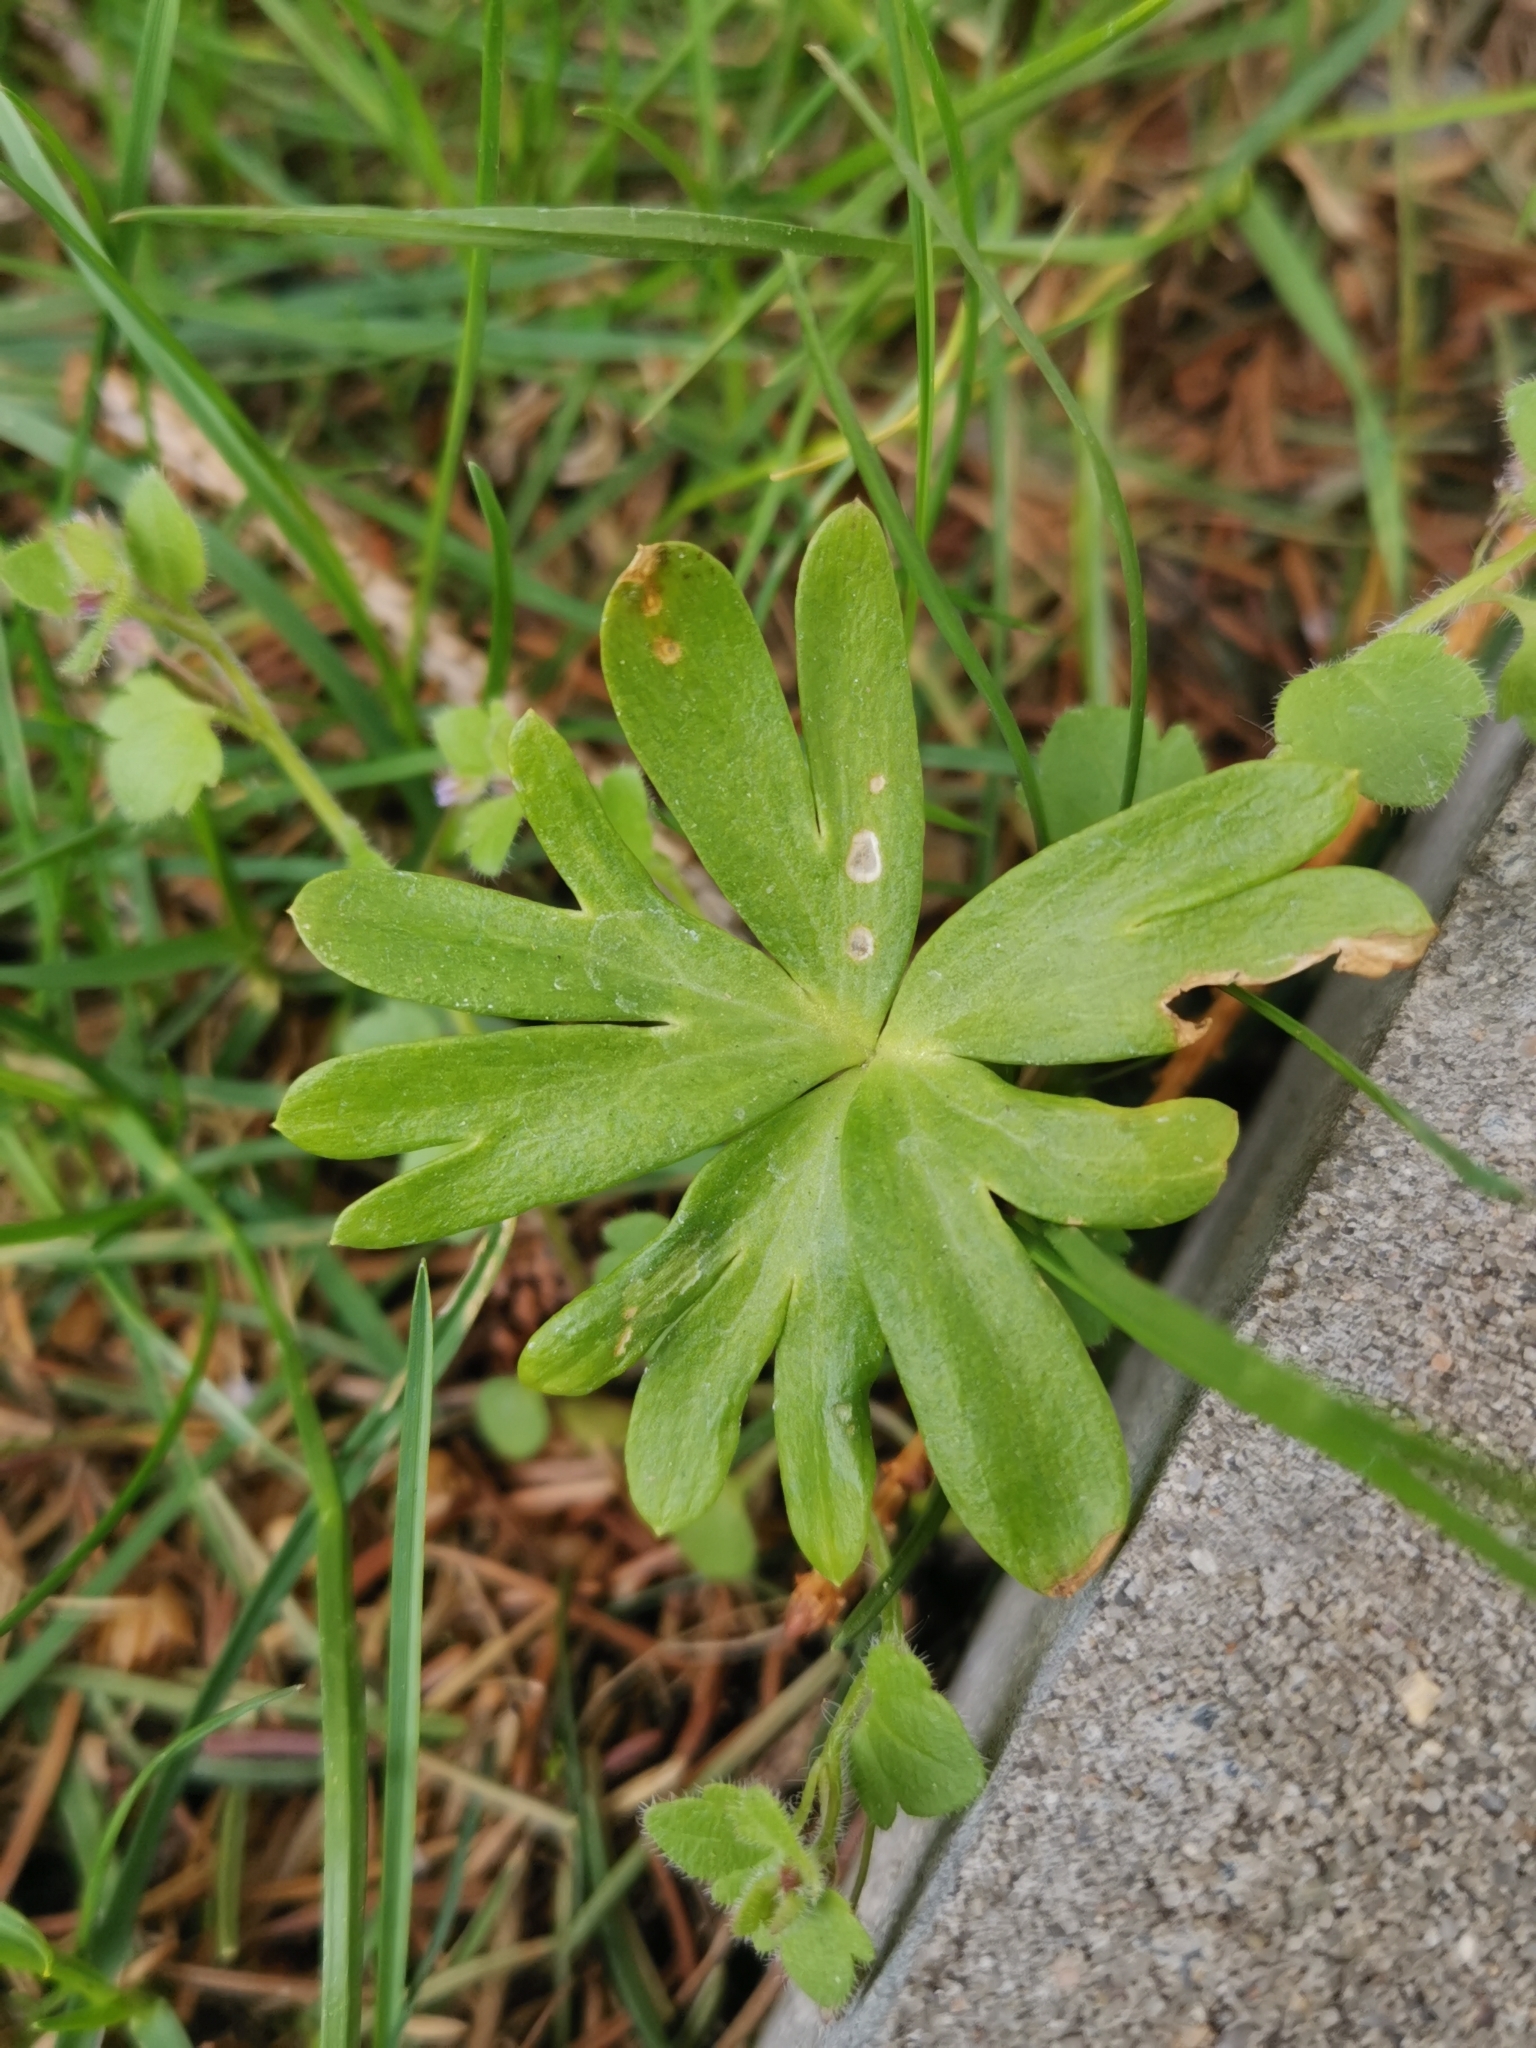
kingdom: Plantae
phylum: Tracheophyta
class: Magnoliopsida
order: Ranunculales
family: Ranunculaceae
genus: Eranthis
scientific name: Eranthis hyemalis
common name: Winter aconite
